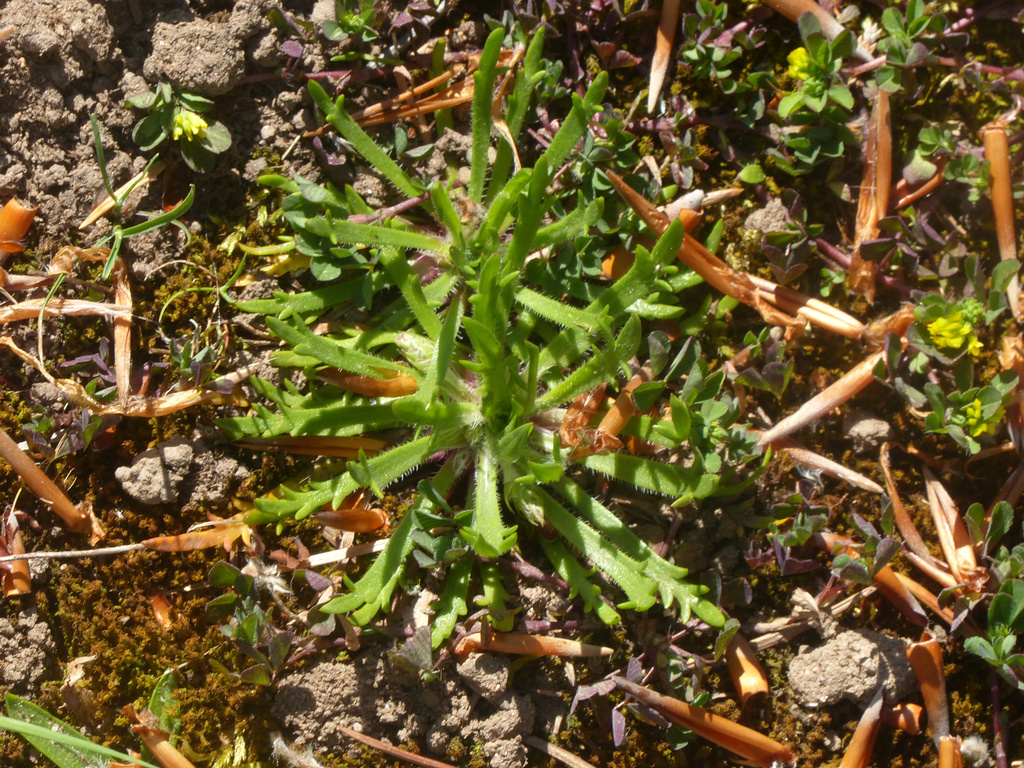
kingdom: Plantae
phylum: Tracheophyta
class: Magnoliopsida
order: Lamiales
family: Plantaginaceae
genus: Plantago
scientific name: Plantago coronopus
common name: Buck's-horn plantain
